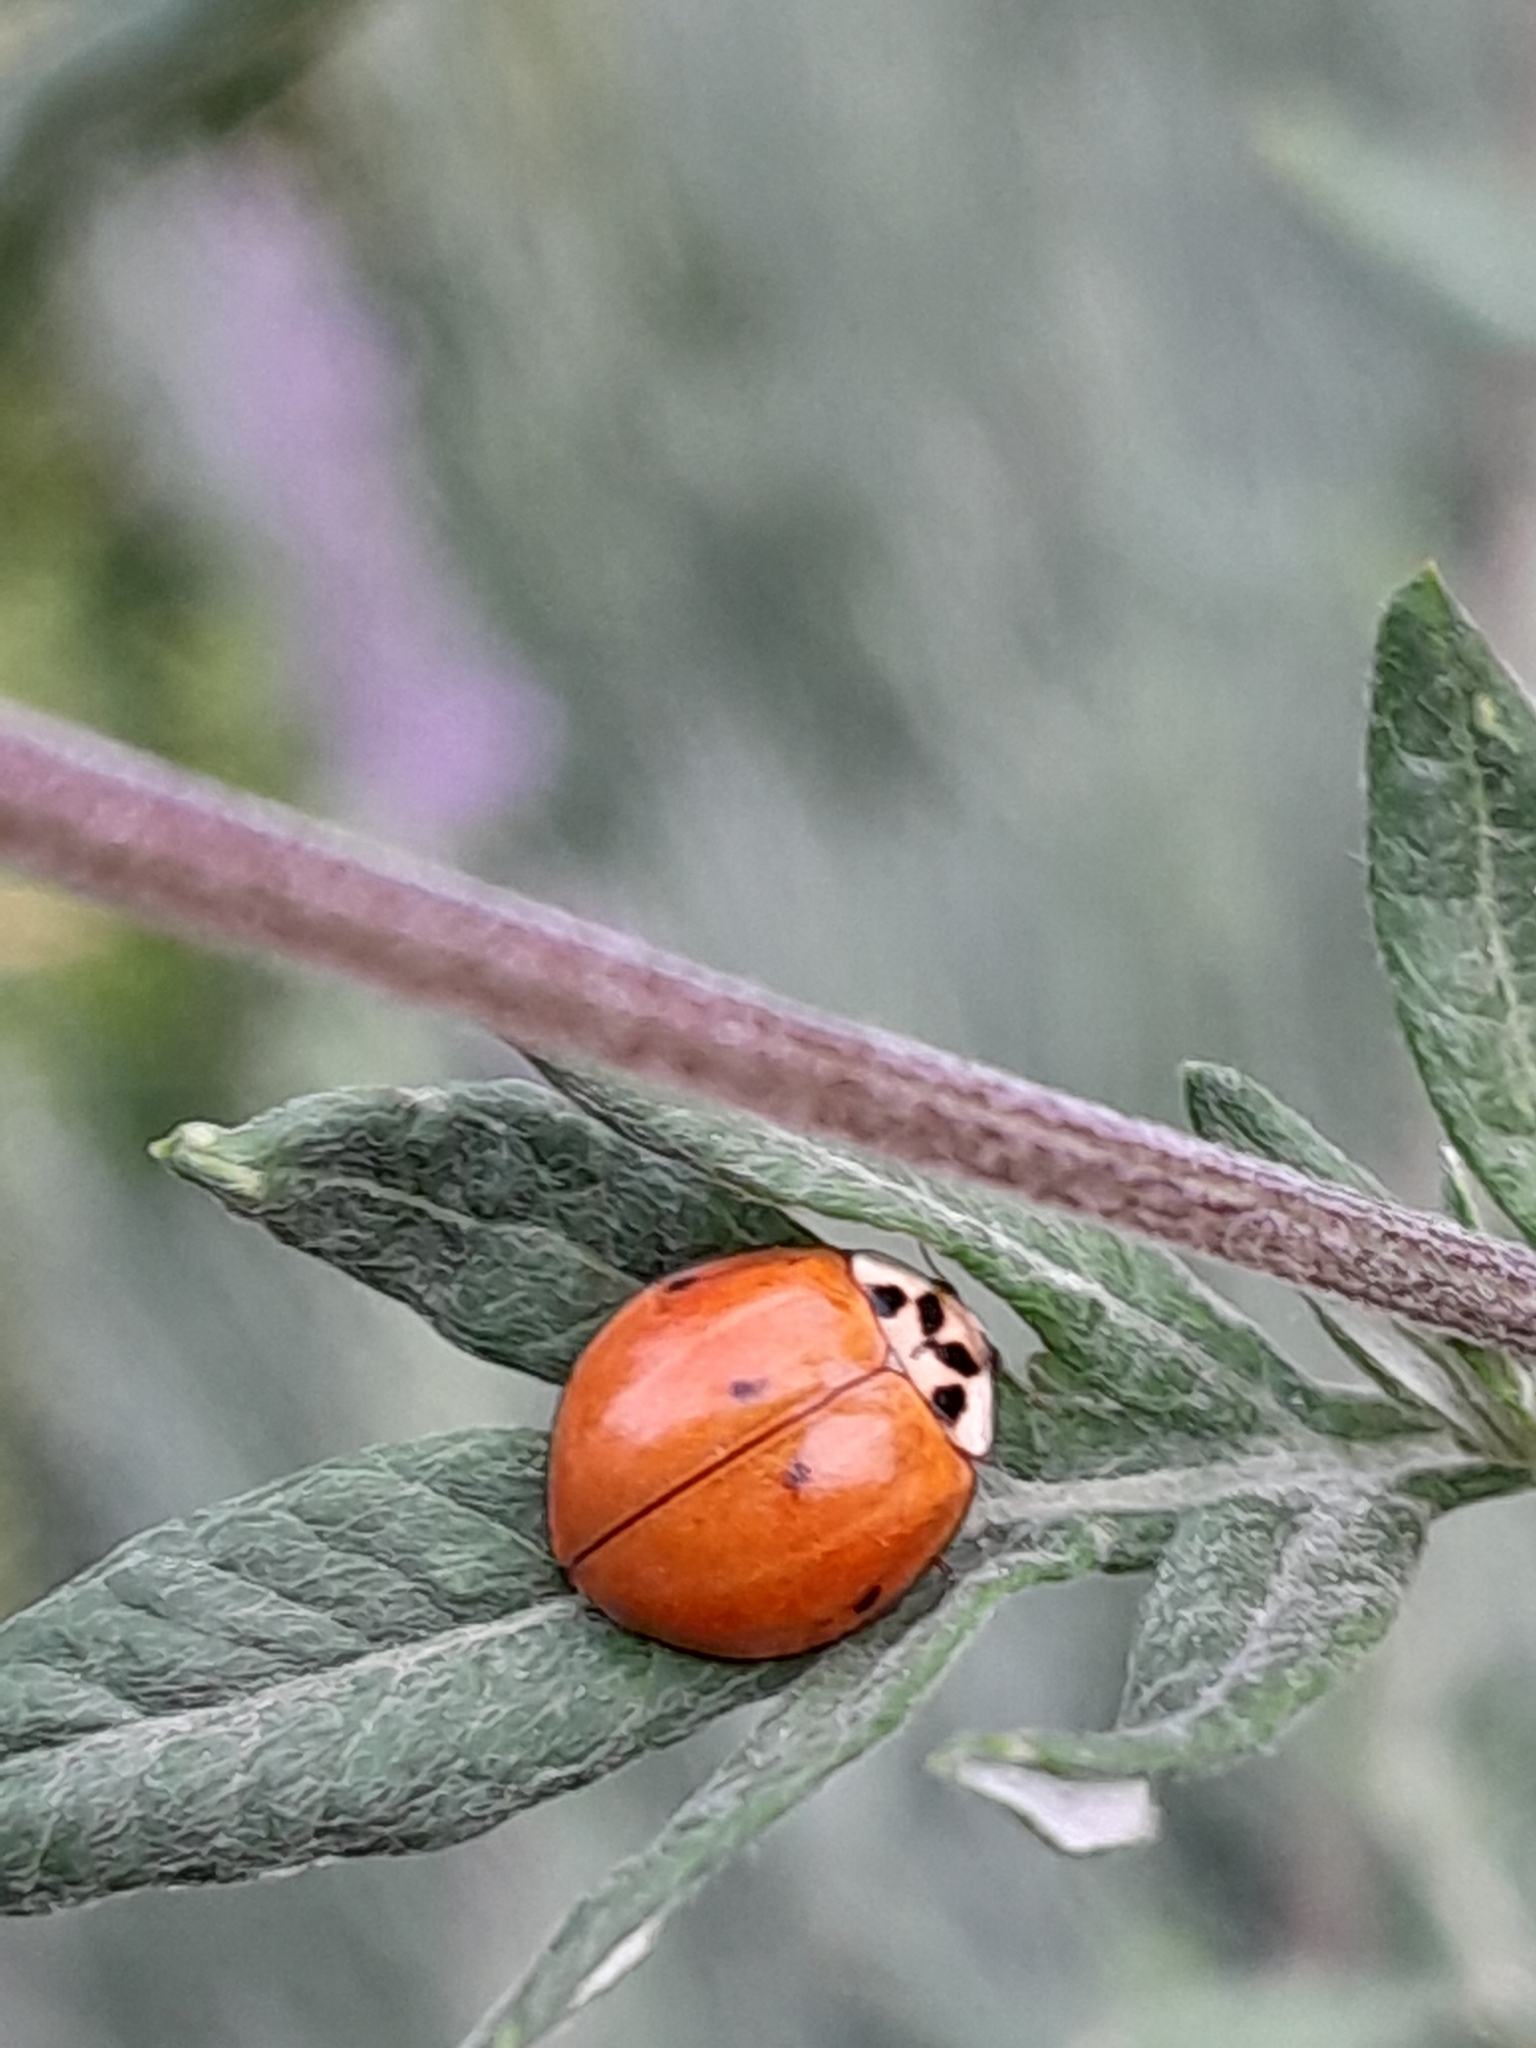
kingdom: Animalia
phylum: Arthropoda
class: Insecta
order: Coleoptera
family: Coccinellidae
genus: Harmonia
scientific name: Harmonia axyridis
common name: Harlequin ladybird
